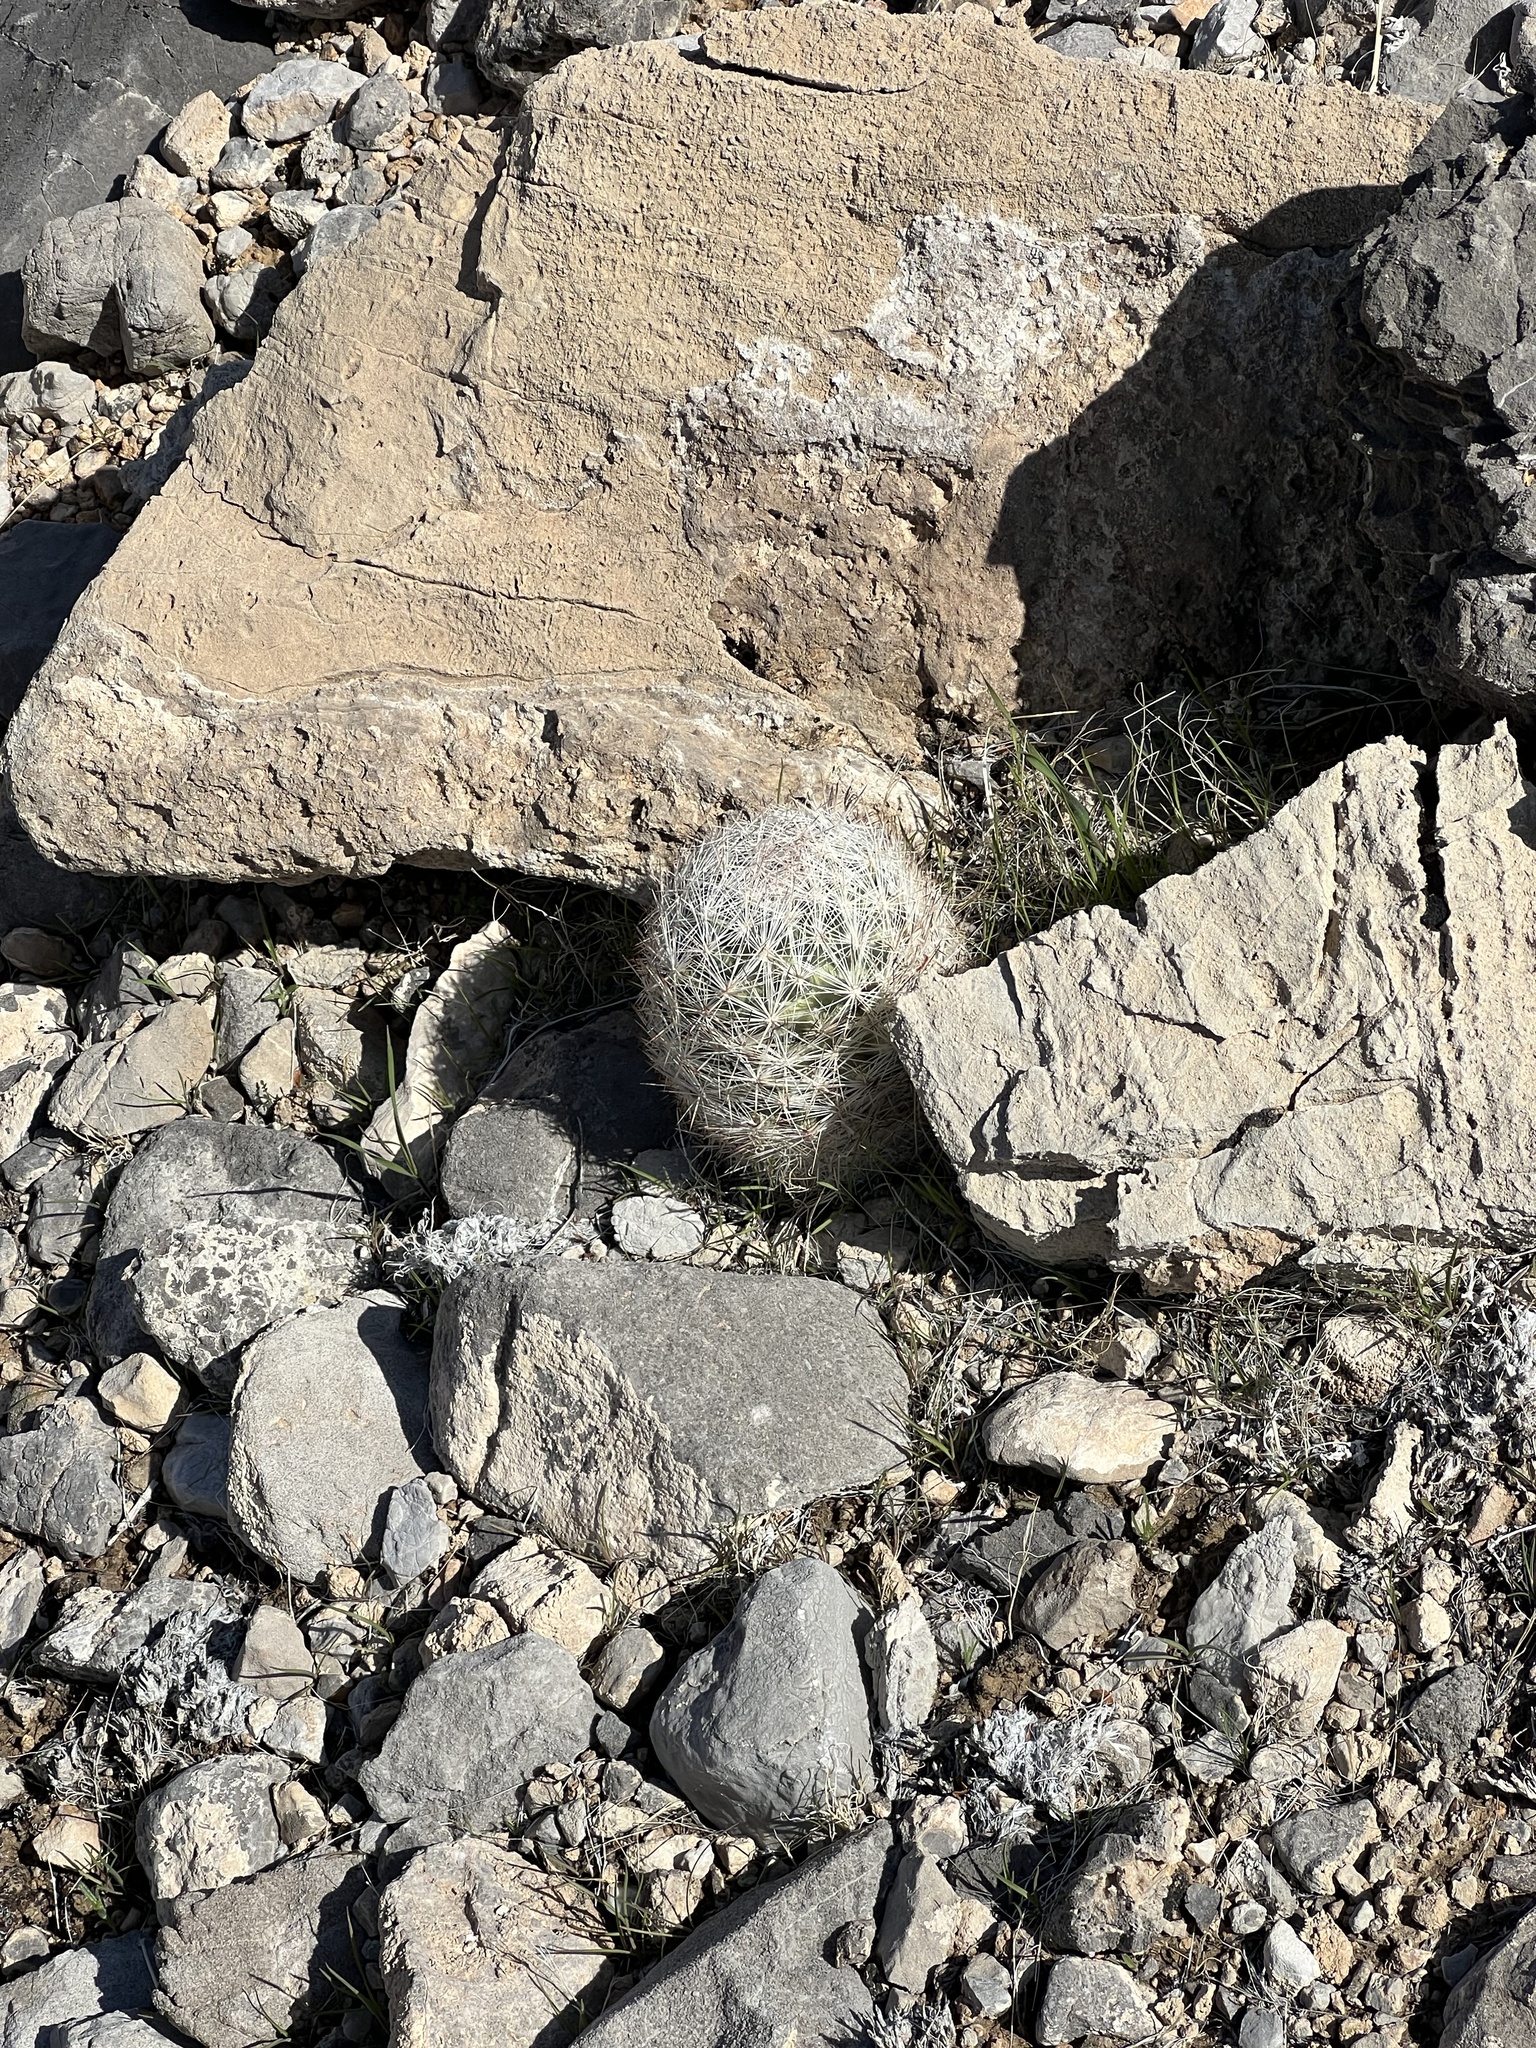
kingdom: Plantae
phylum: Tracheophyta
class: Magnoliopsida
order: Caryophyllales
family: Cactaceae
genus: Pelecyphora
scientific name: Pelecyphora dasyacantha
